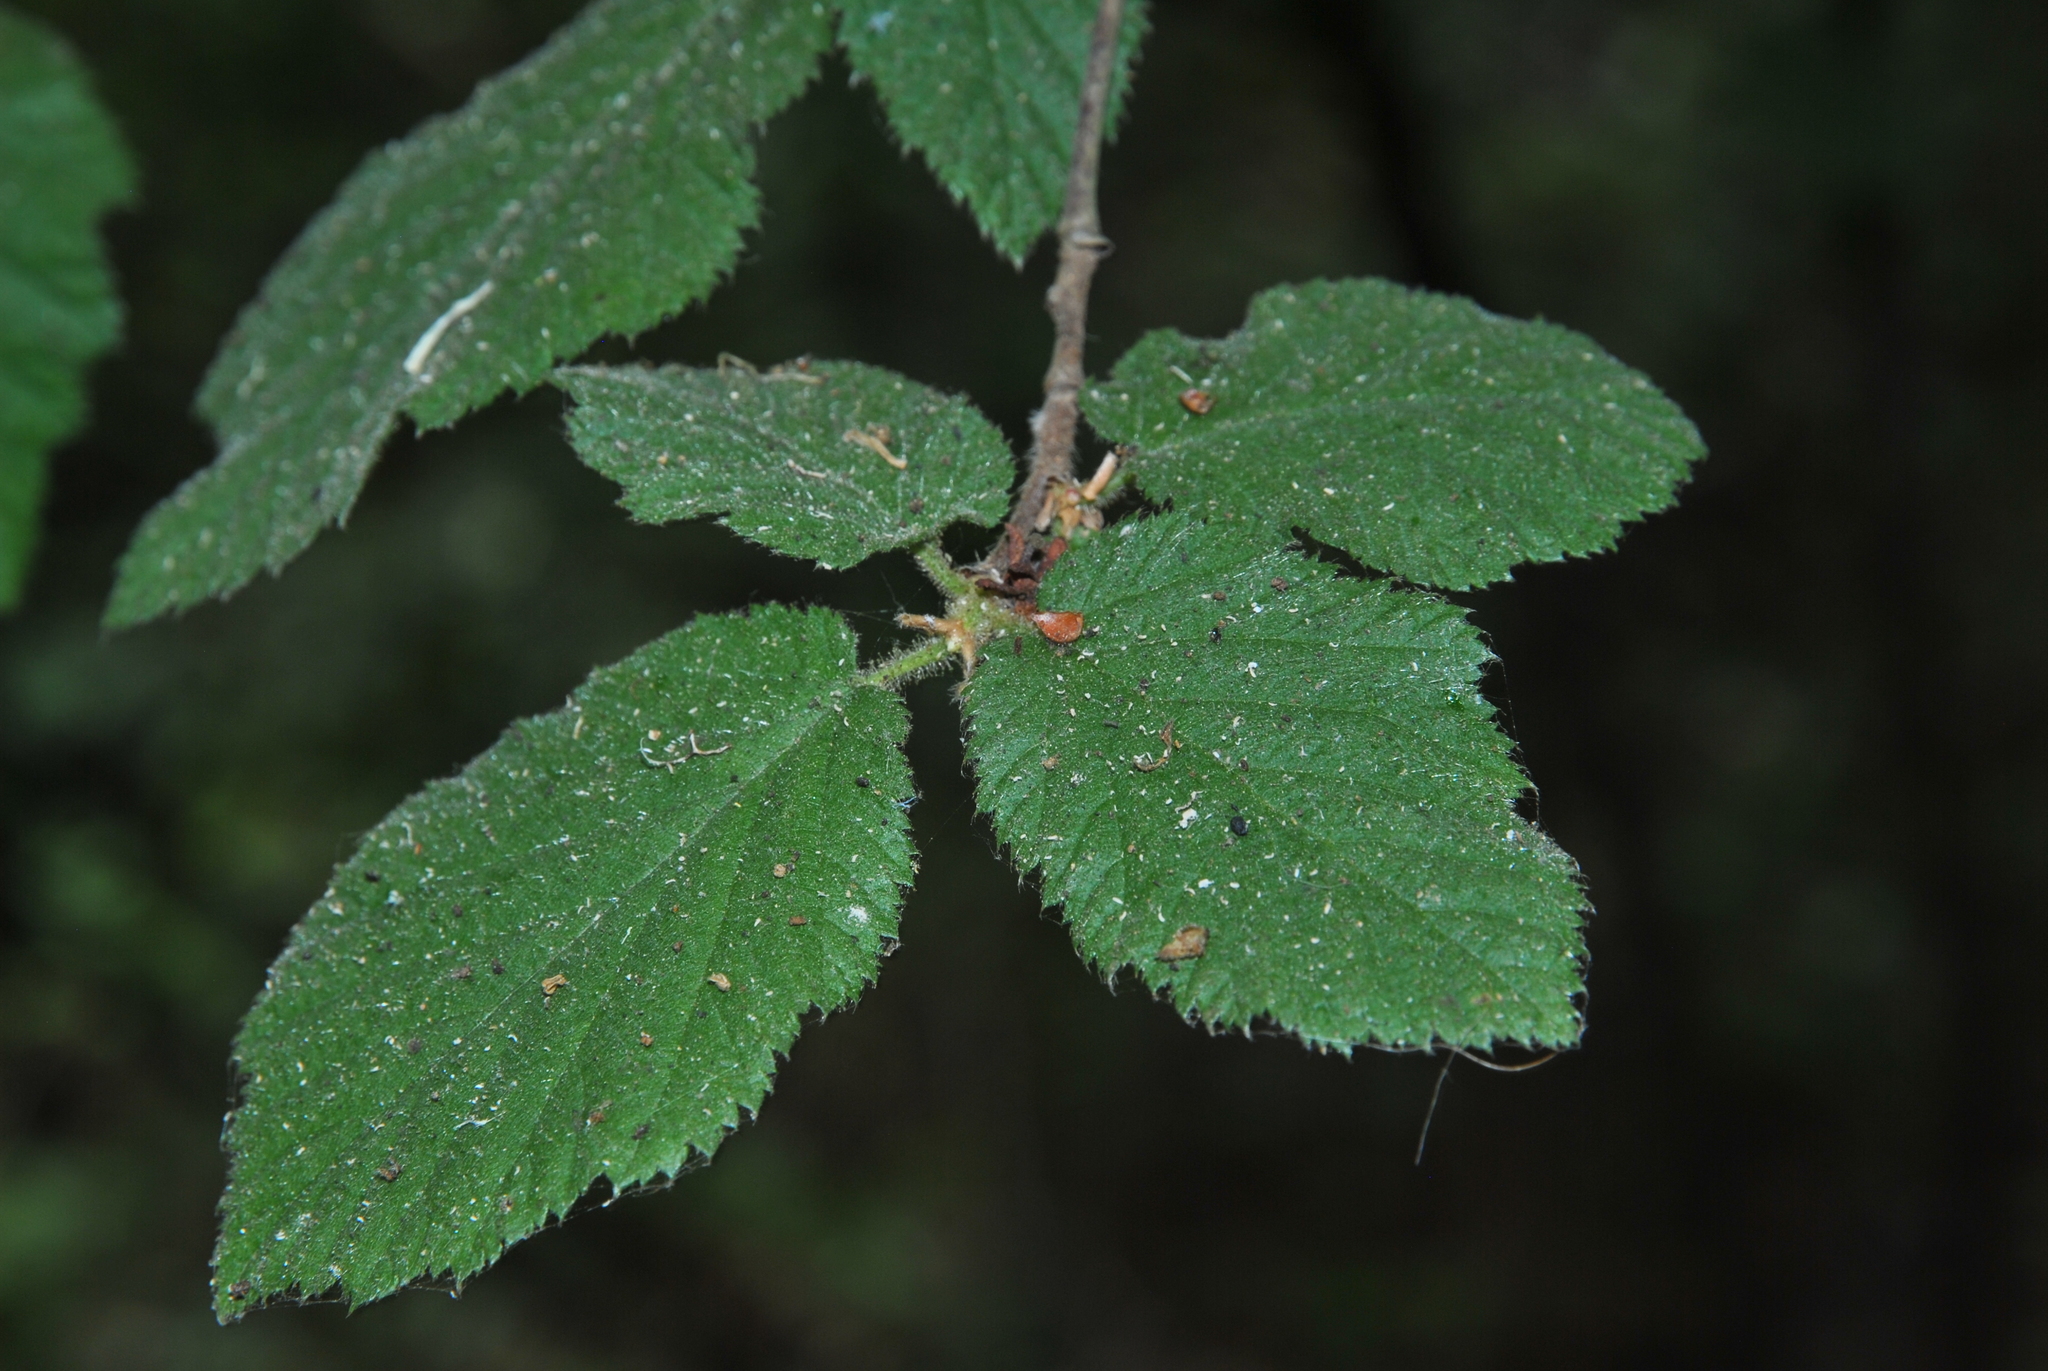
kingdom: Plantae
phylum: Tracheophyta
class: Magnoliopsida
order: Fagales
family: Betulaceae
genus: Corylus
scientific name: Corylus cornuta
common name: Beaked hazel
